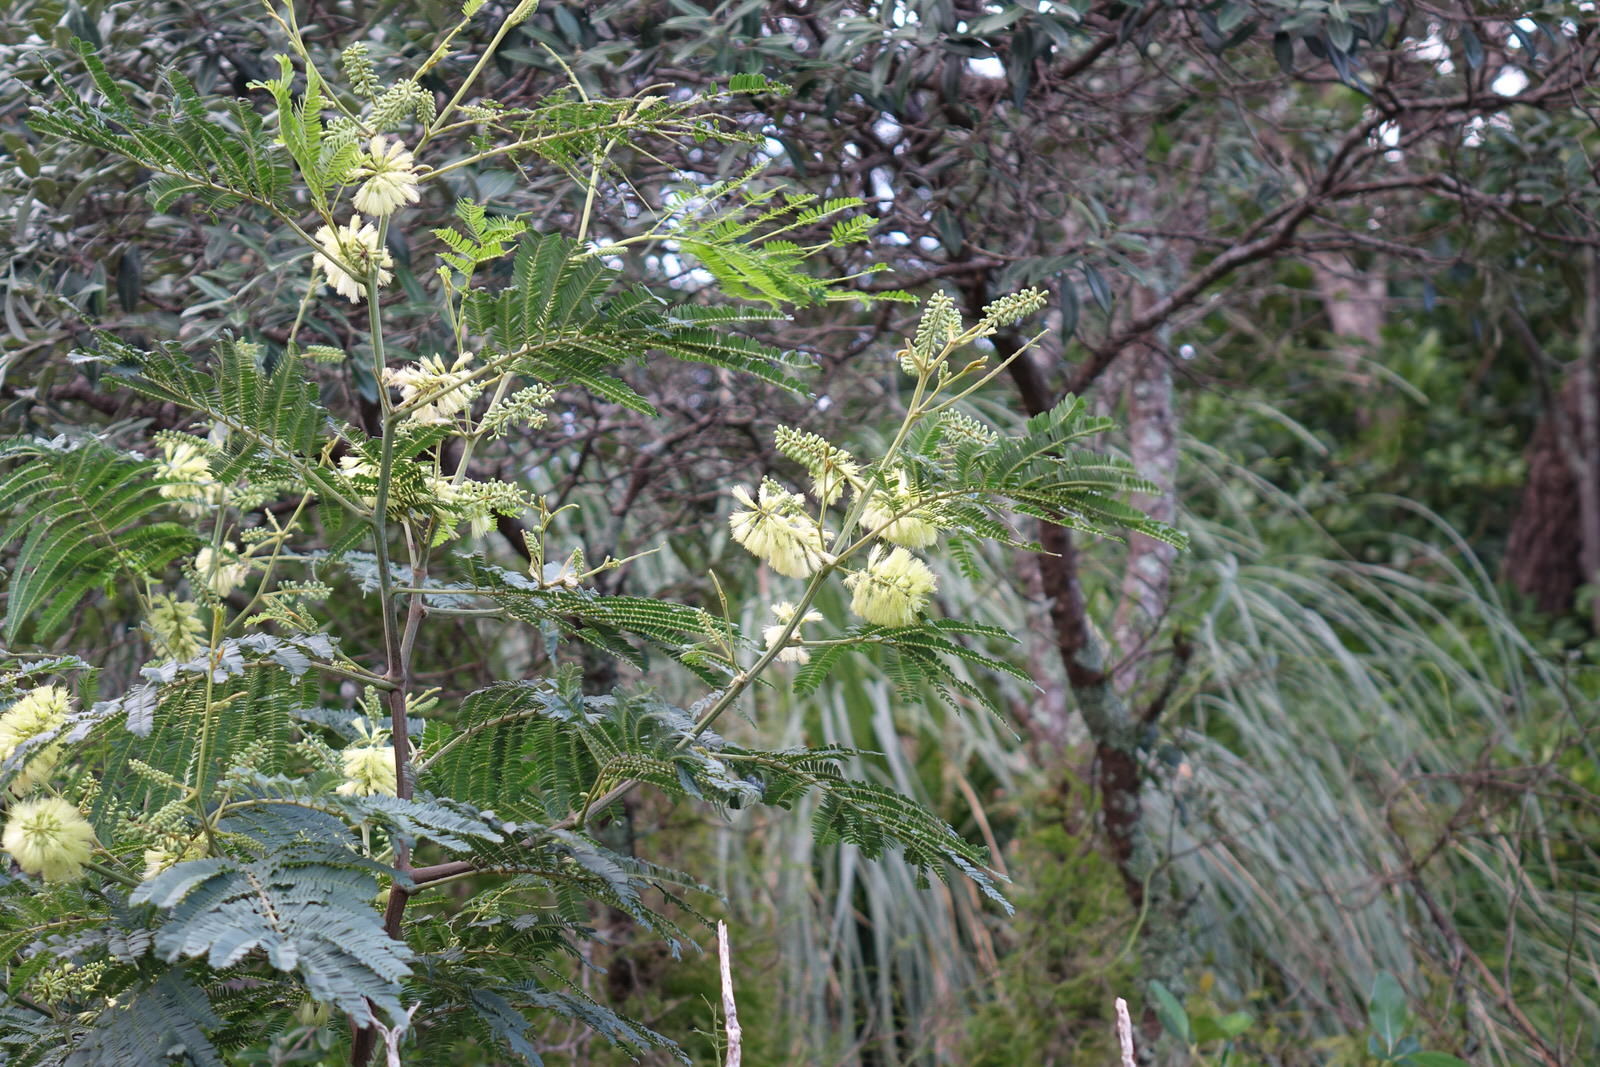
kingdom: Plantae
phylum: Tracheophyta
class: Magnoliopsida
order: Fabales
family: Fabaceae
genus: Paraserianthes
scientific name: Paraserianthes lophantha
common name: Plume albizia
